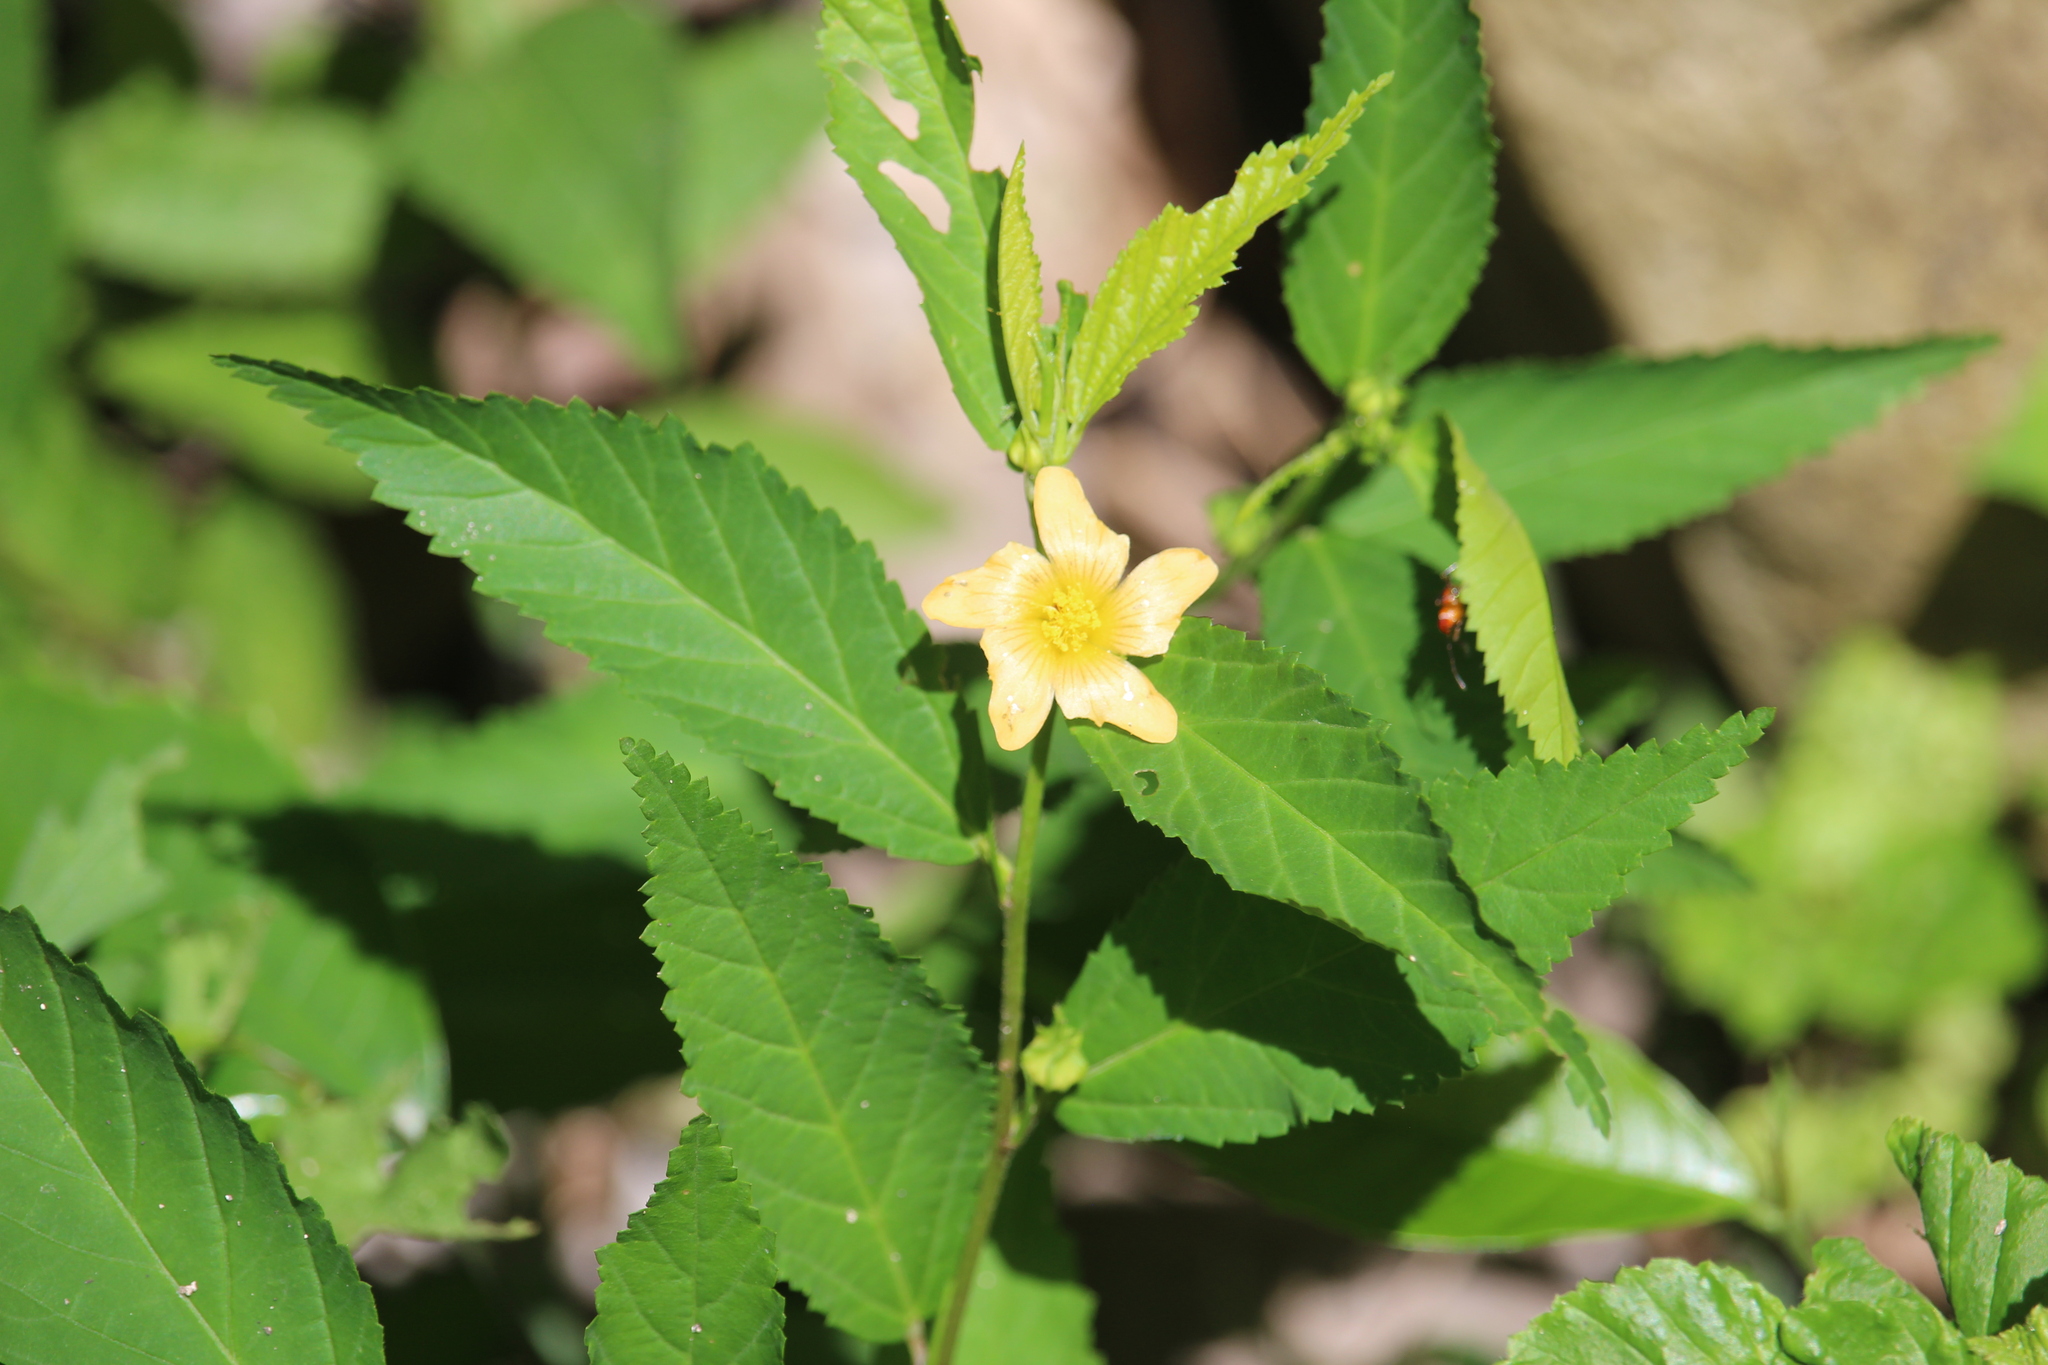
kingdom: Plantae
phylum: Tracheophyta
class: Magnoliopsida
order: Malvales
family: Malvaceae
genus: Sida
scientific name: Sida rhombifolia
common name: Queensland-hemp
